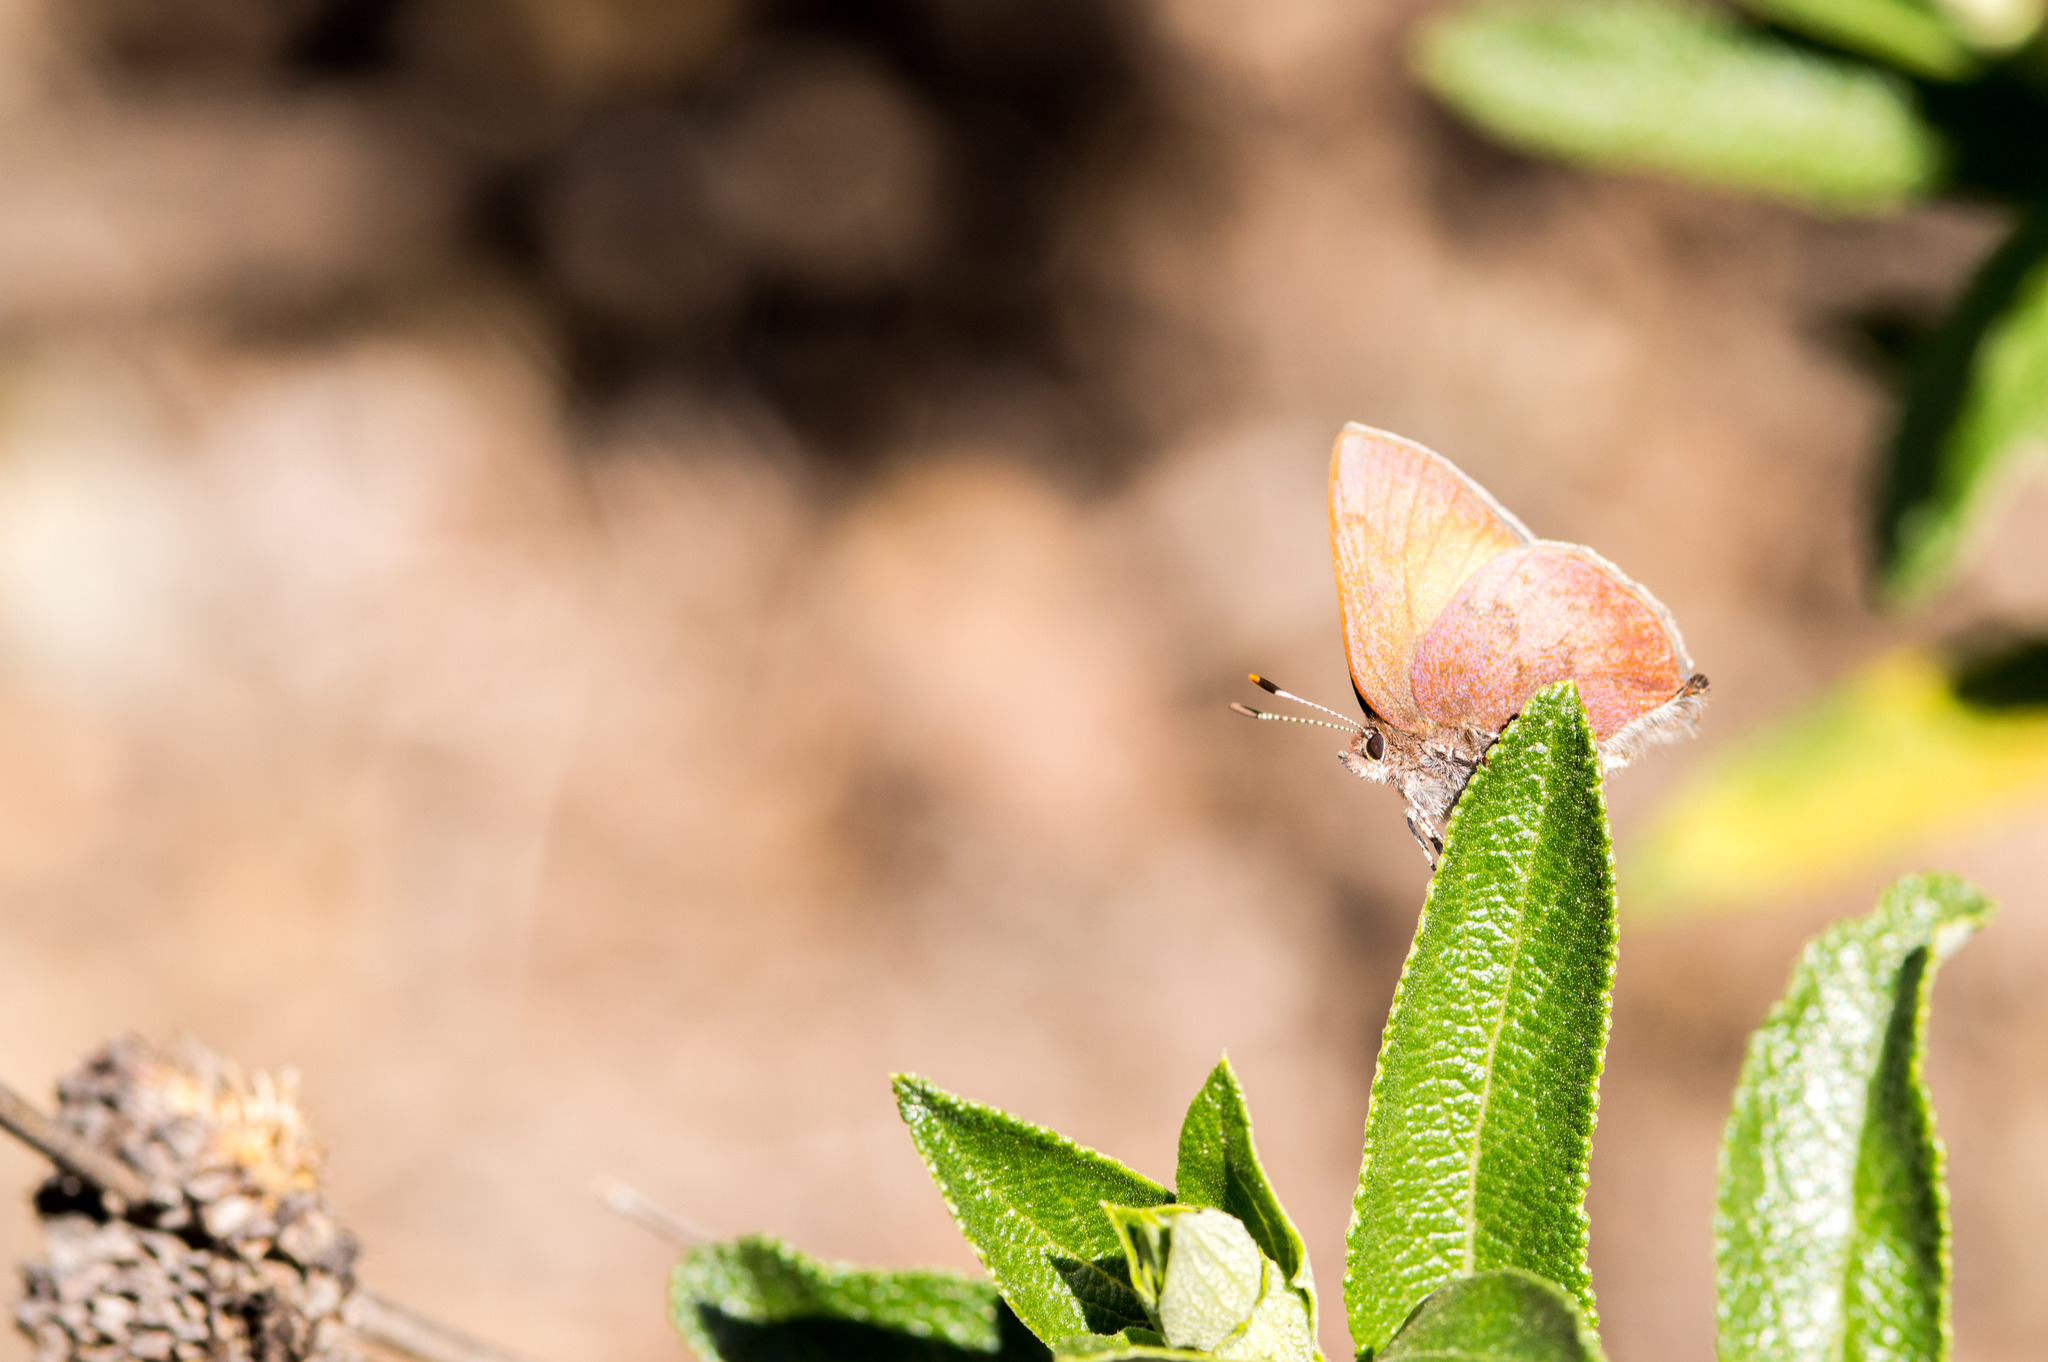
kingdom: Animalia
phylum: Arthropoda
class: Insecta
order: Lepidoptera
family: Lycaenidae
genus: Incisalia
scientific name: Incisalia irioides
